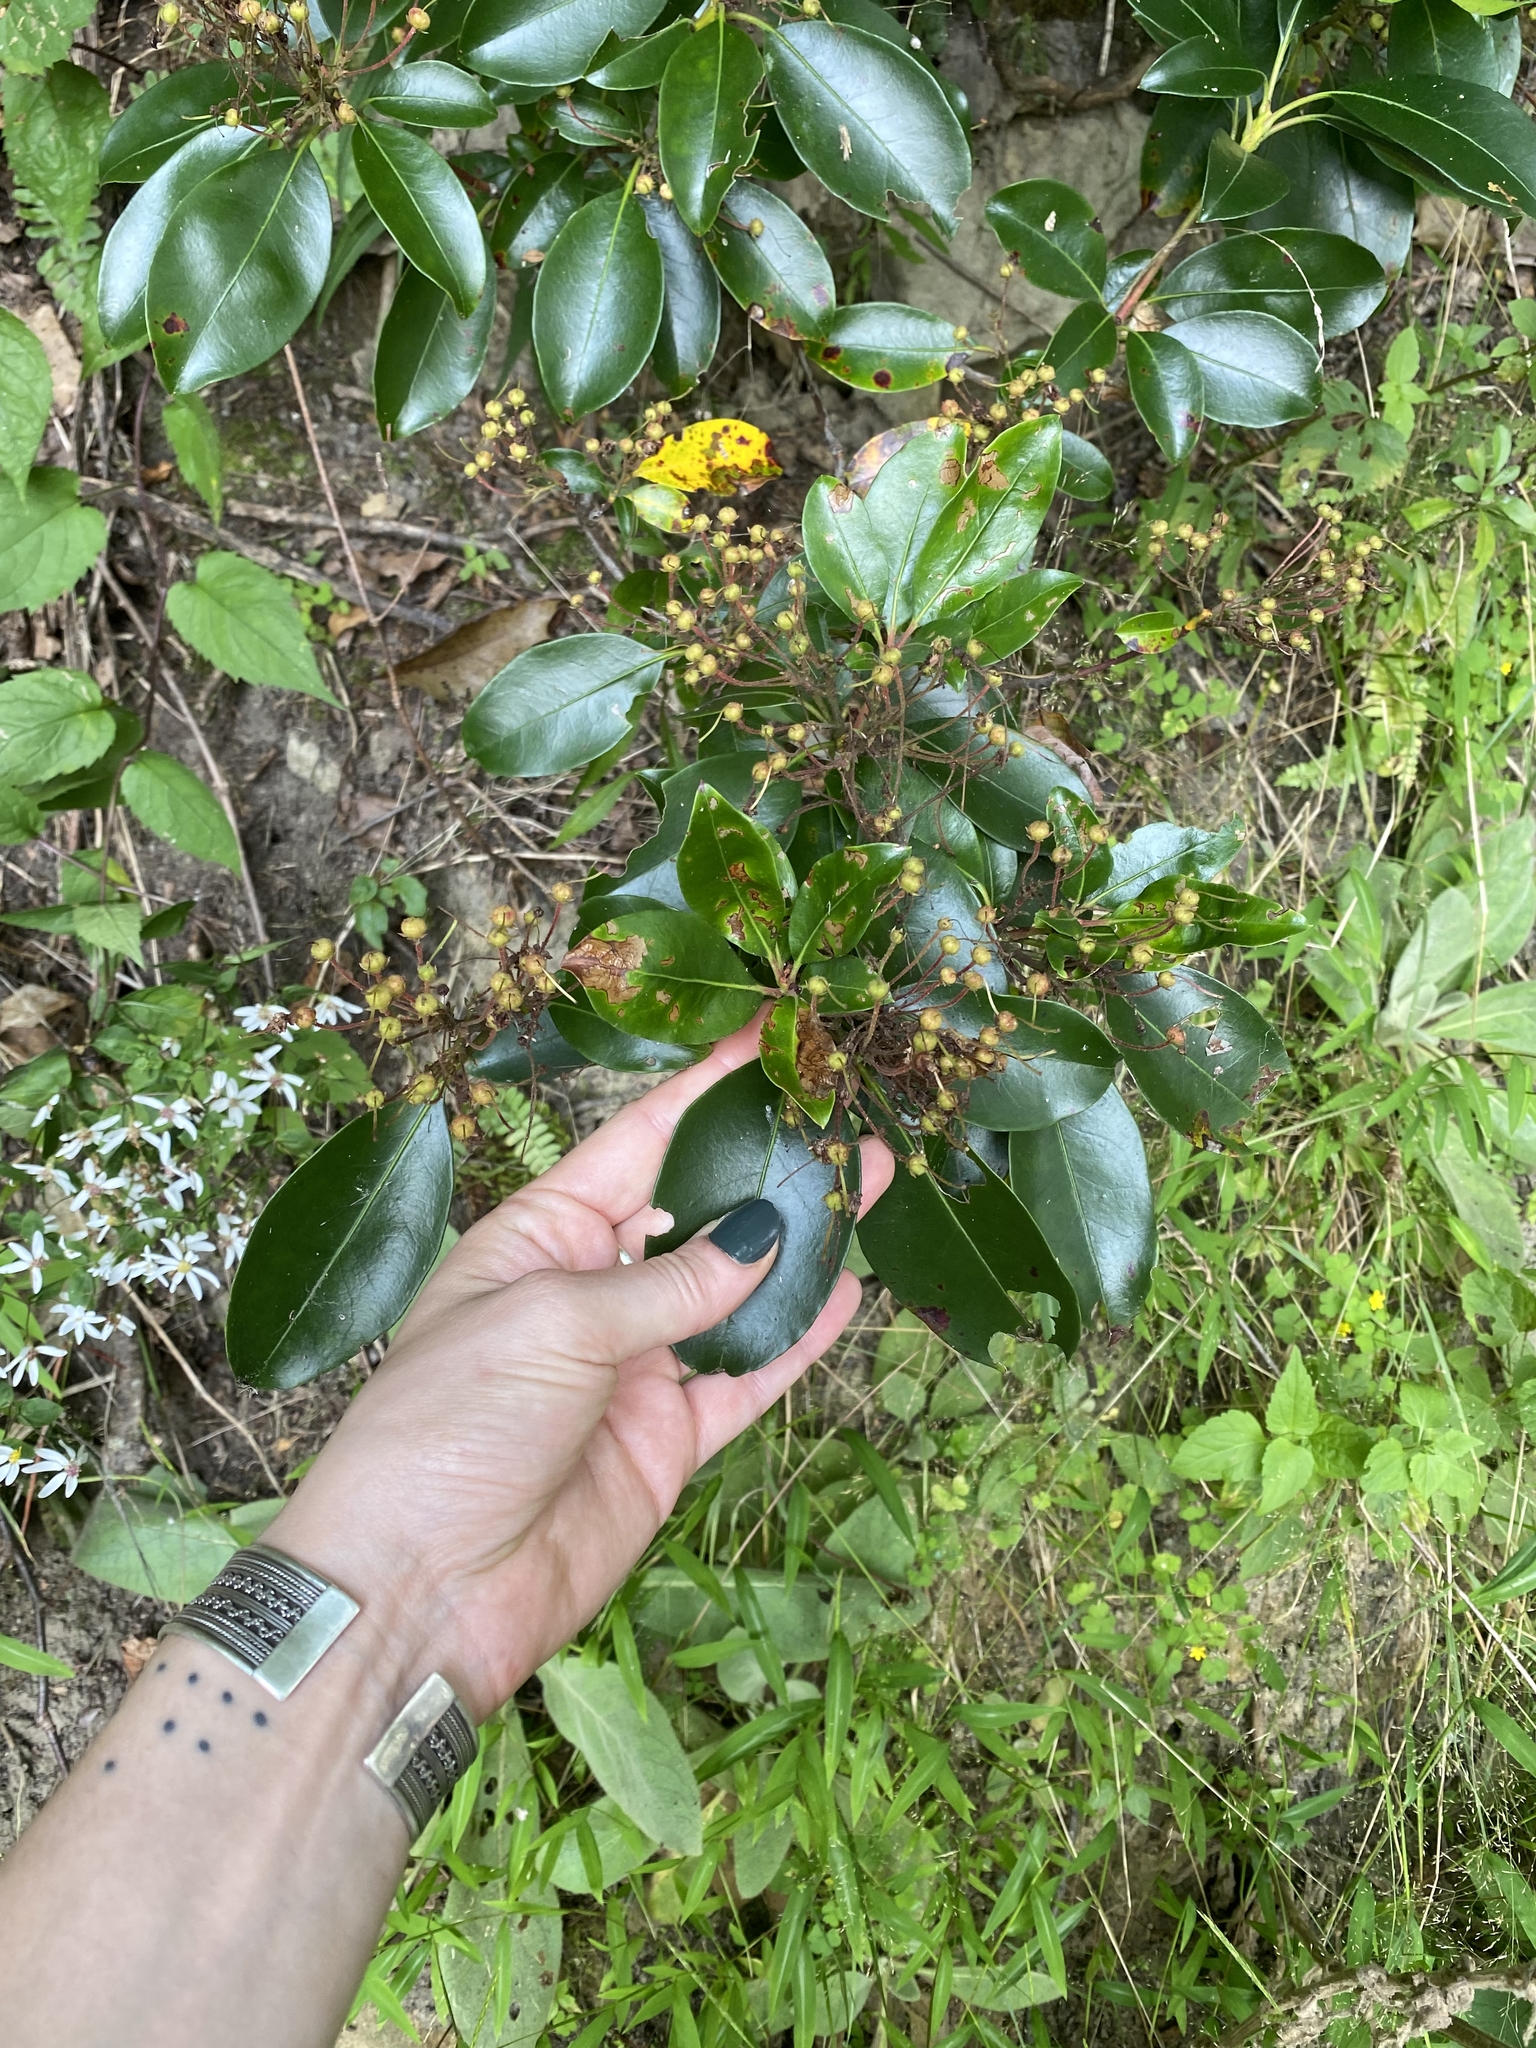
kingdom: Plantae
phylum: Tracheophyta
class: Magnoliopsida
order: Ericales
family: Ericaceae
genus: Kalmia
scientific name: Kalmia latifolia
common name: Mountain-laurel
